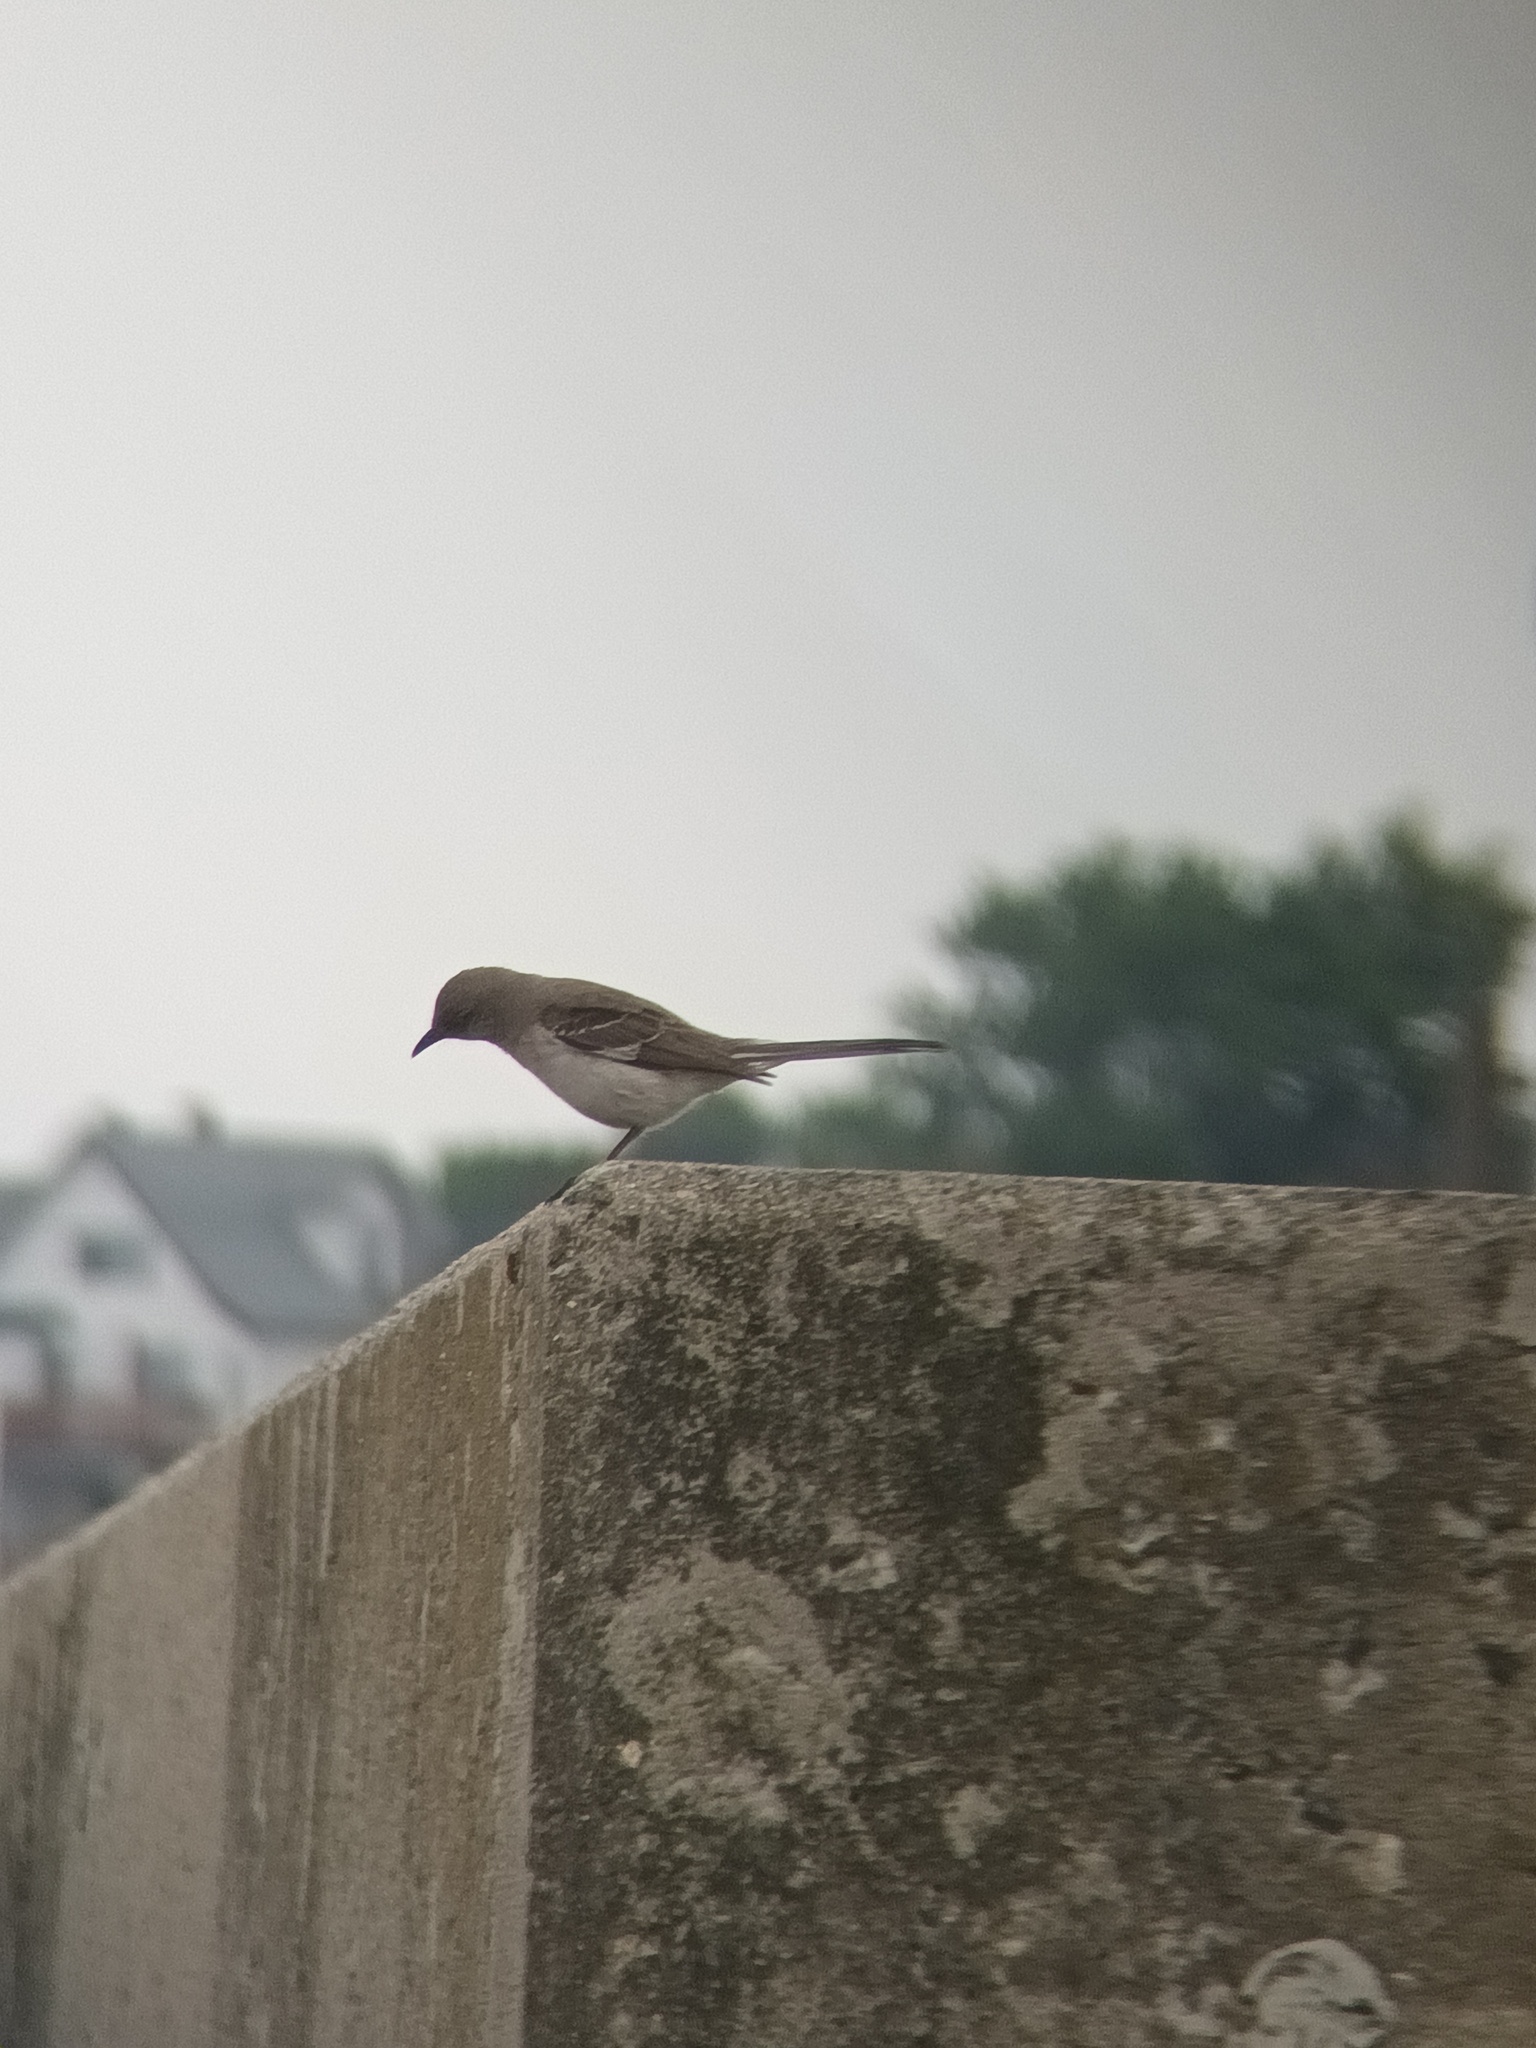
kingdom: Animalia
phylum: Chordata
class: Aves
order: Passeriformes
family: Mimidae
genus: Mimus
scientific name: Mimus polyglottos
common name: Northern mockingbird
